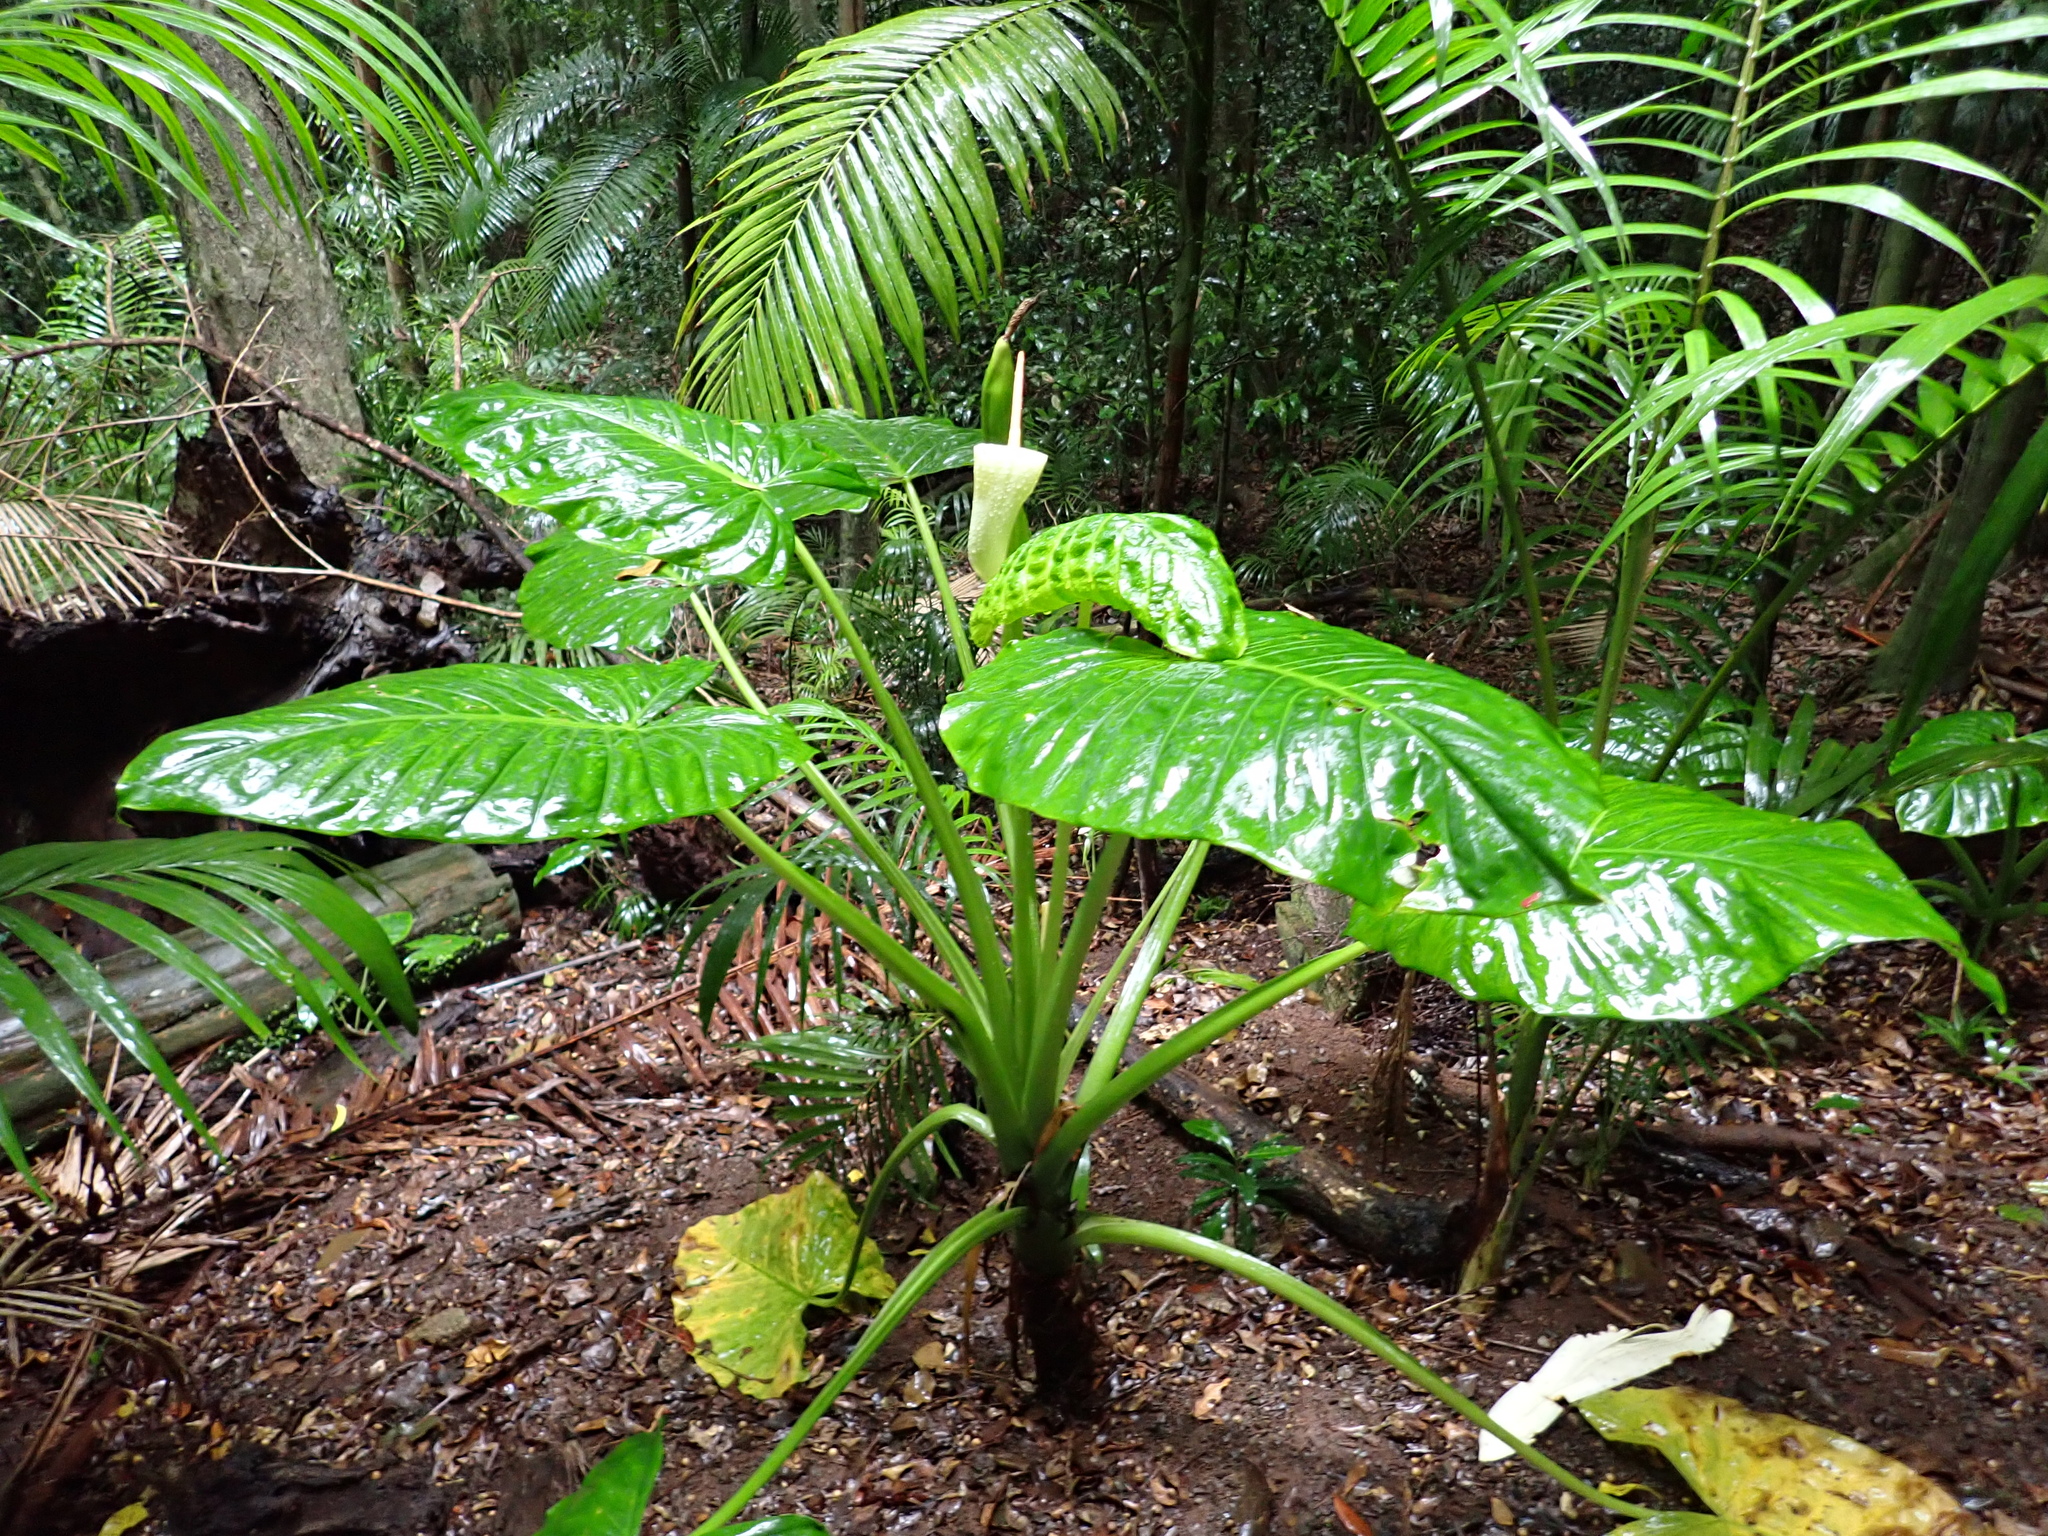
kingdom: Plantae
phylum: Tracheophyta
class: Liliopsida
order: Alismatales
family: Araceae
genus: Alocasia
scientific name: Alocasia brisbanensis
